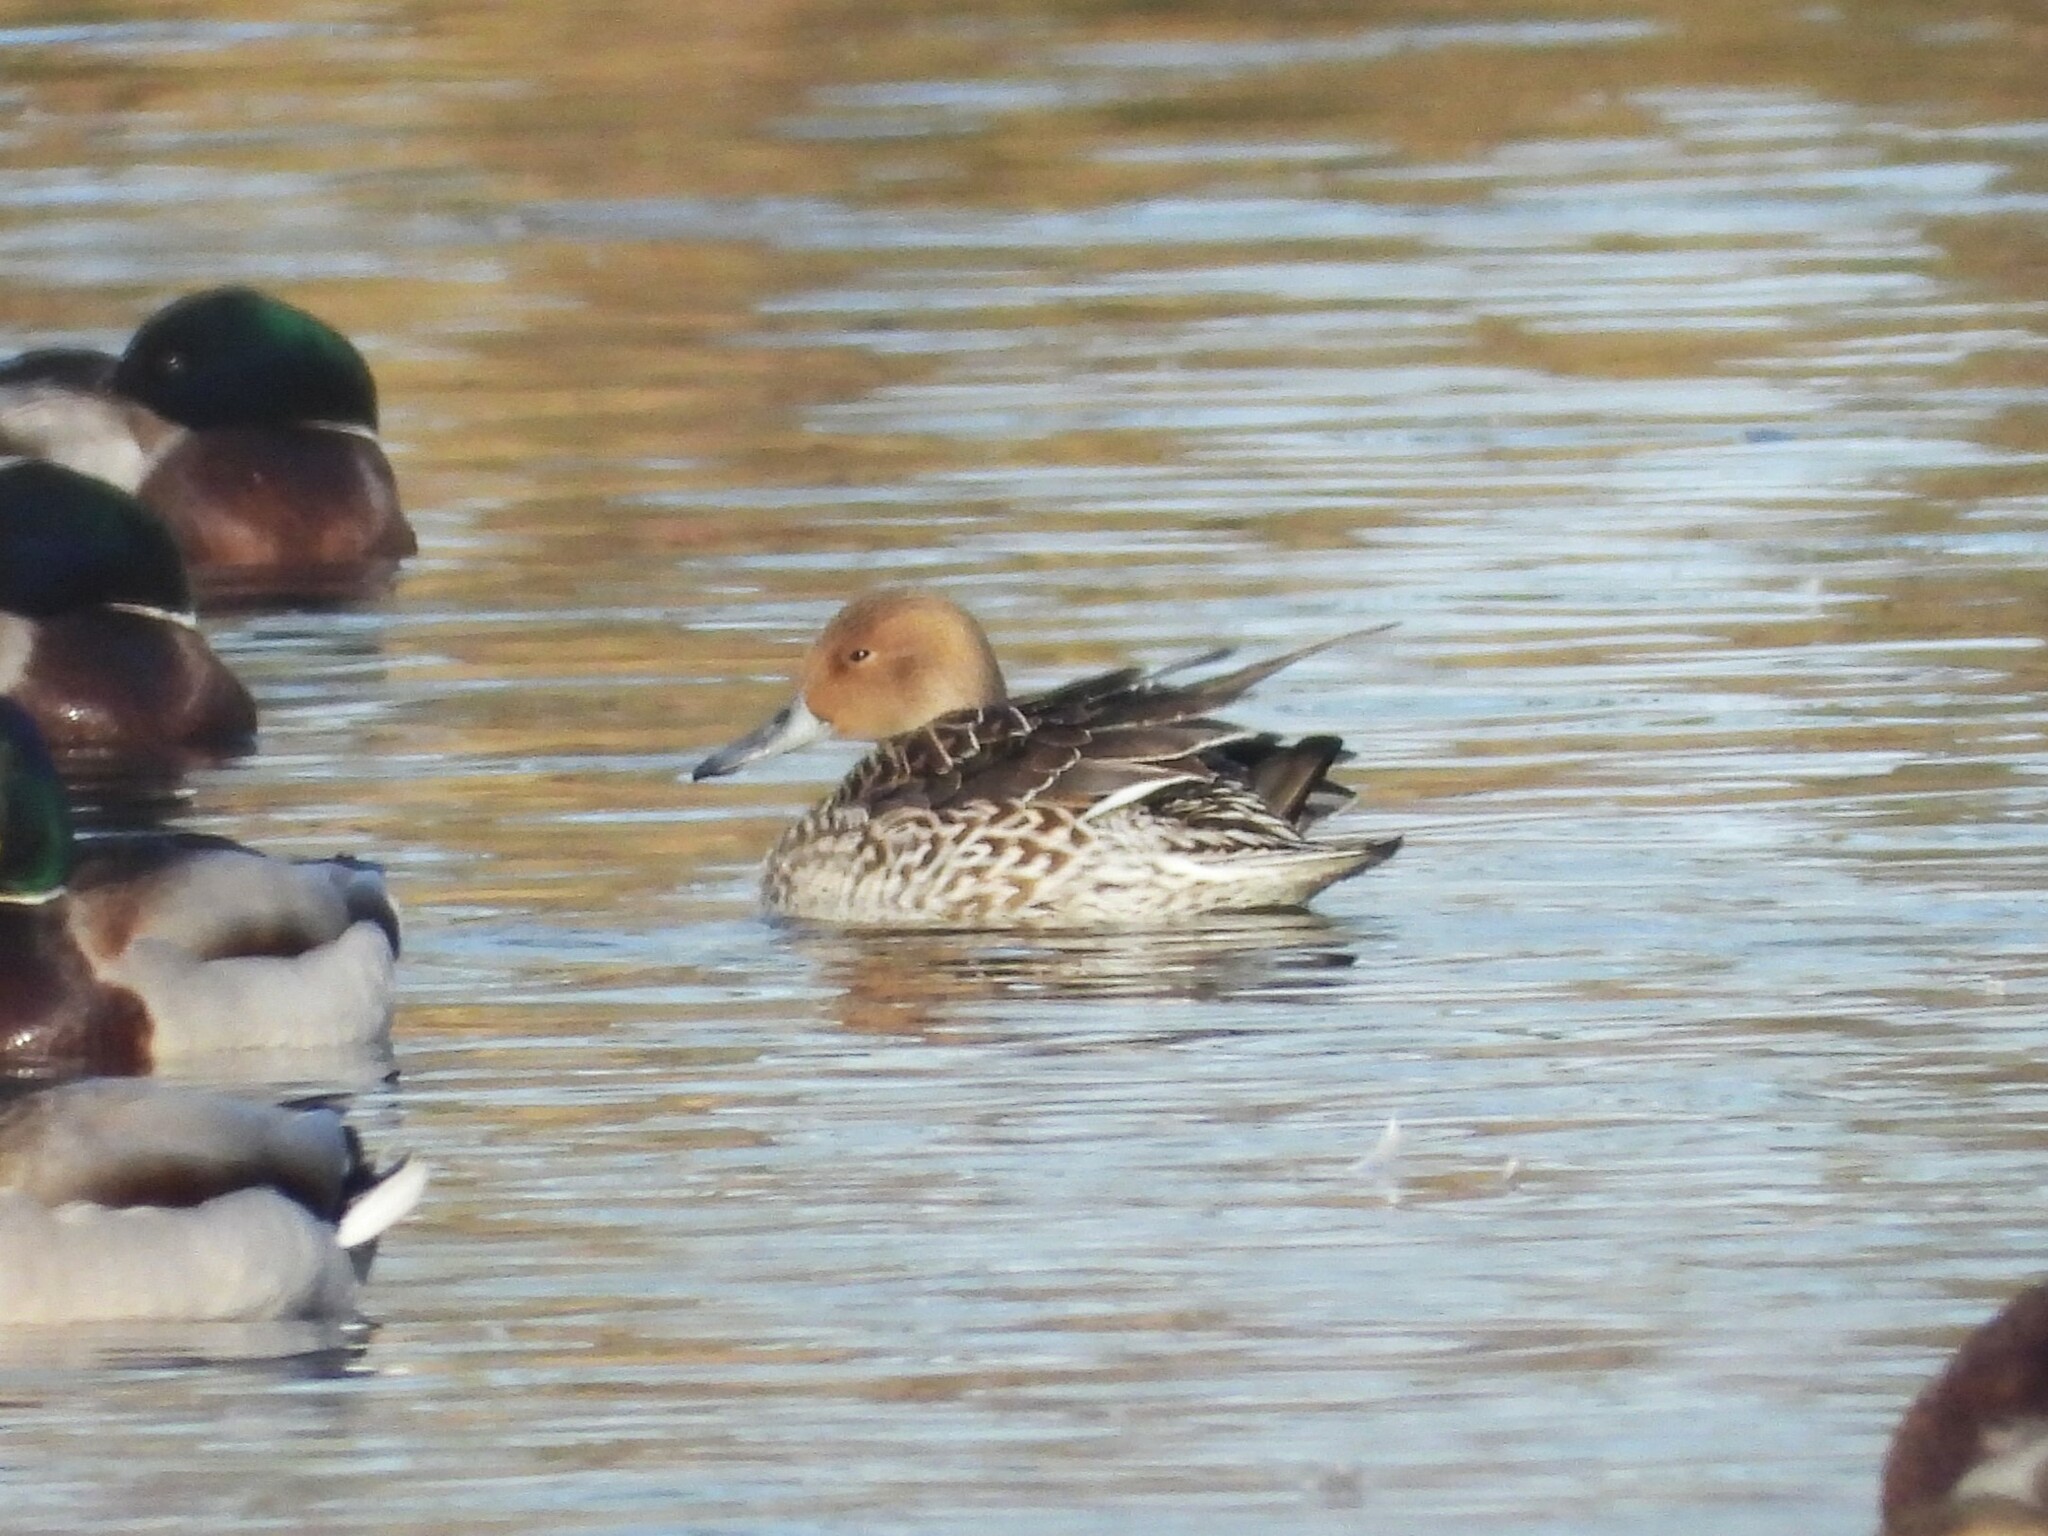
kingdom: Animalia
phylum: Chordata
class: Aves
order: Anseriformes
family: Anatidae
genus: Anas
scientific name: Anas acuta
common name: Northern pintail
